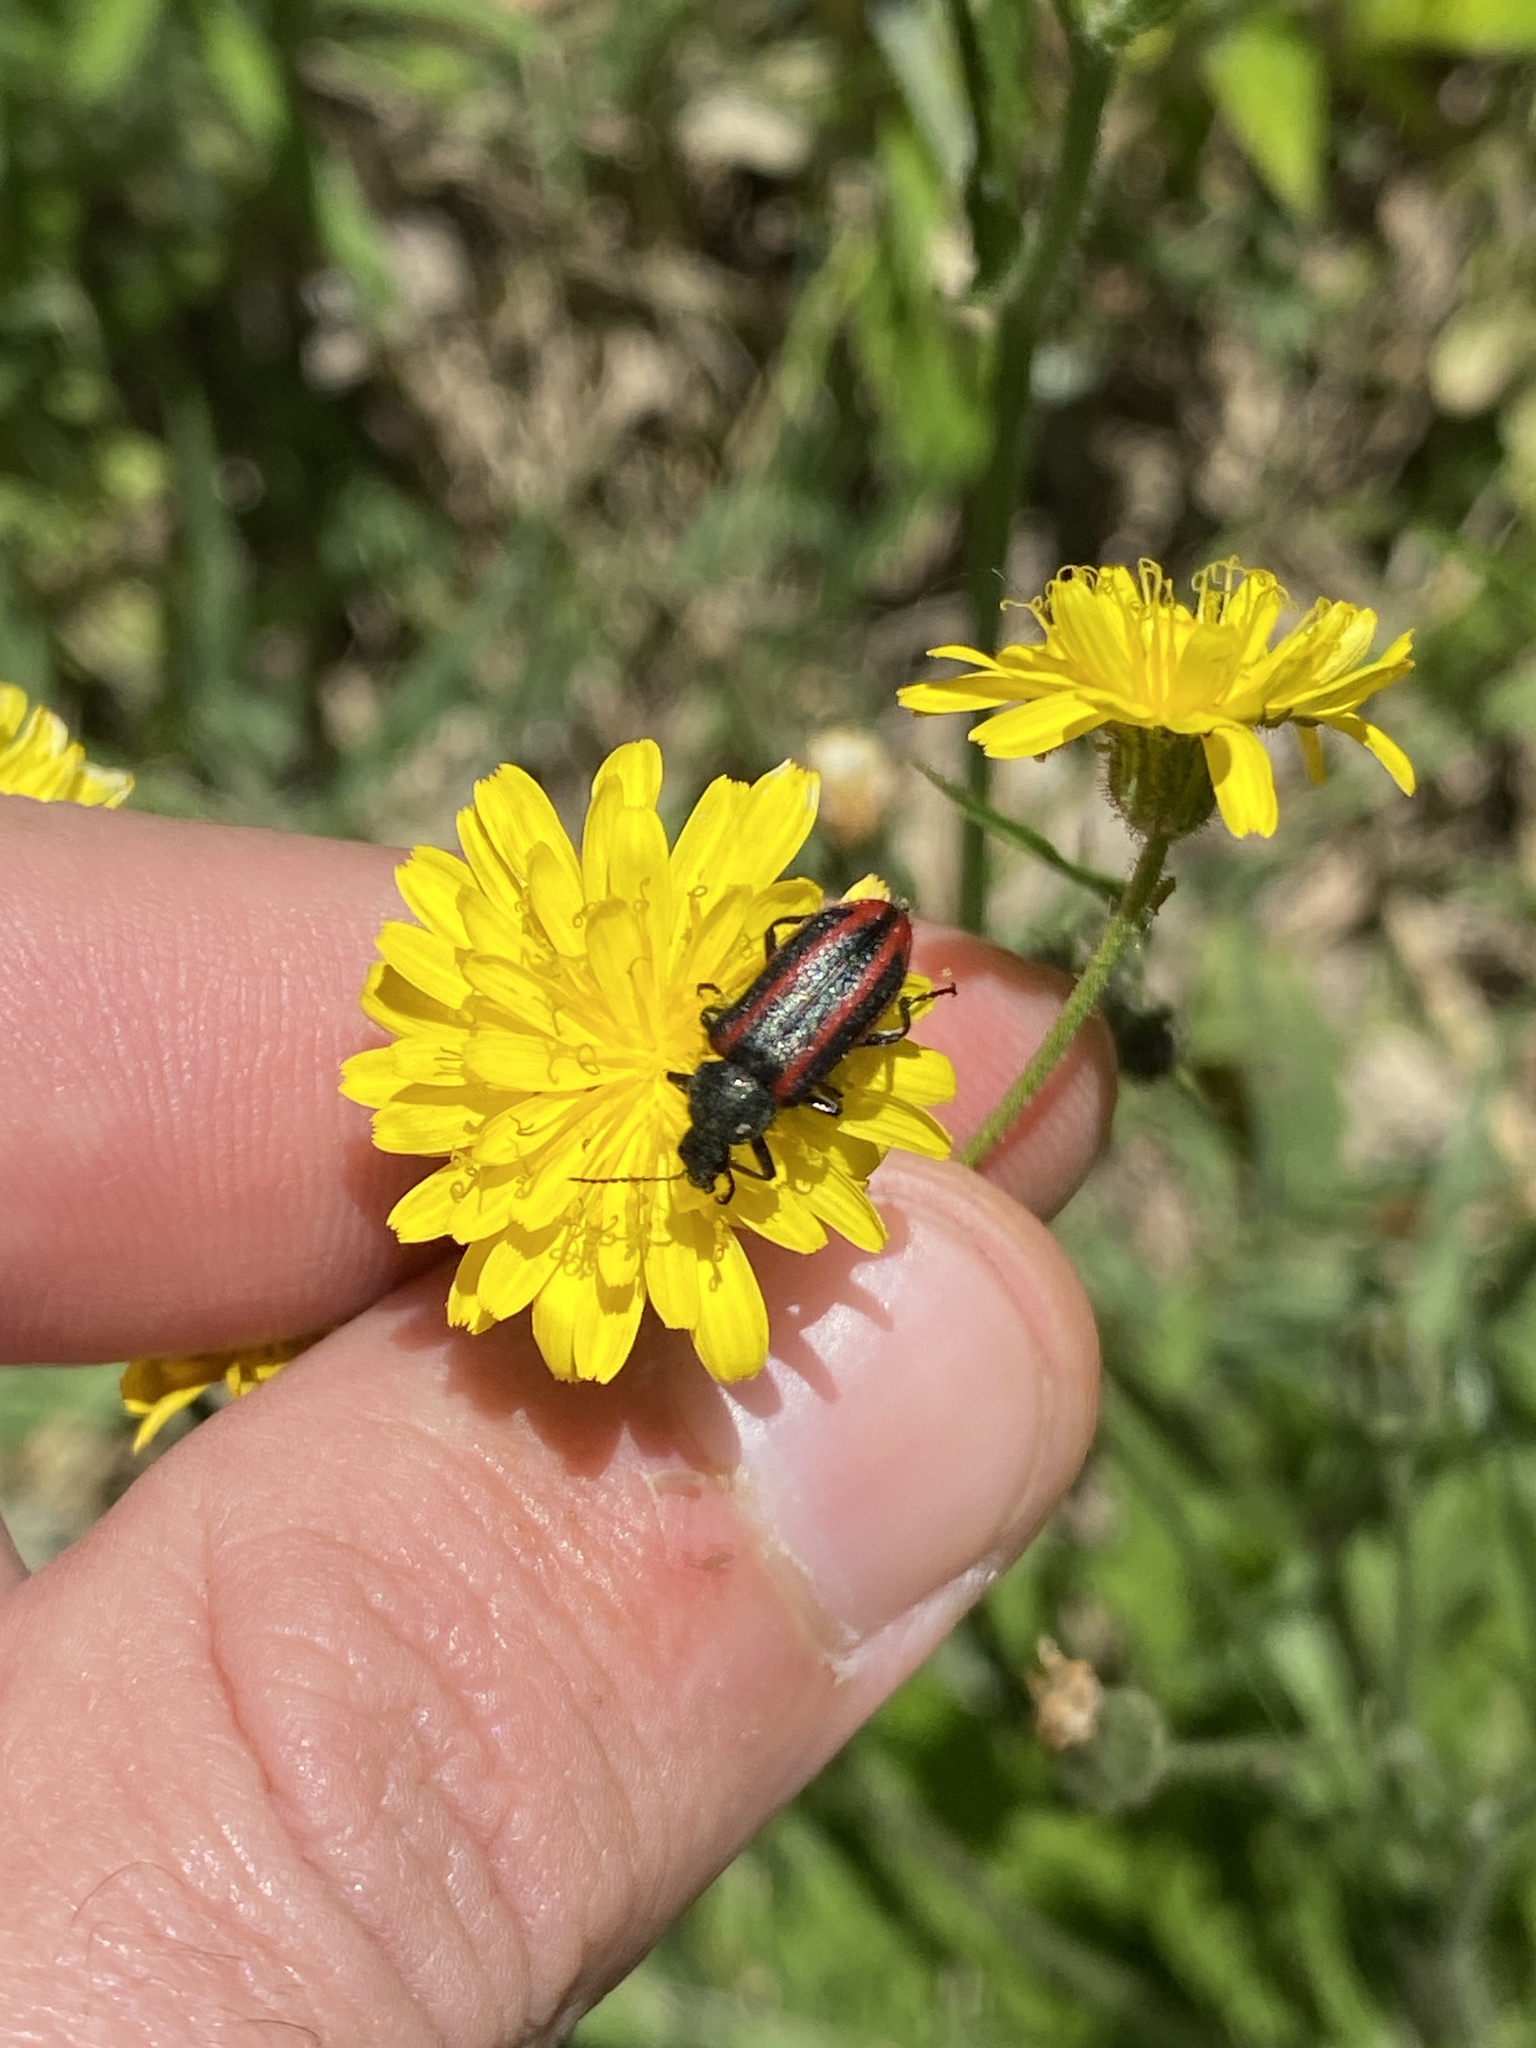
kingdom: Animalia
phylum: Arthropoda
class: Insecta
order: Coleoptera
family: Melyridae
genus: Astylus
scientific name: Astylus
